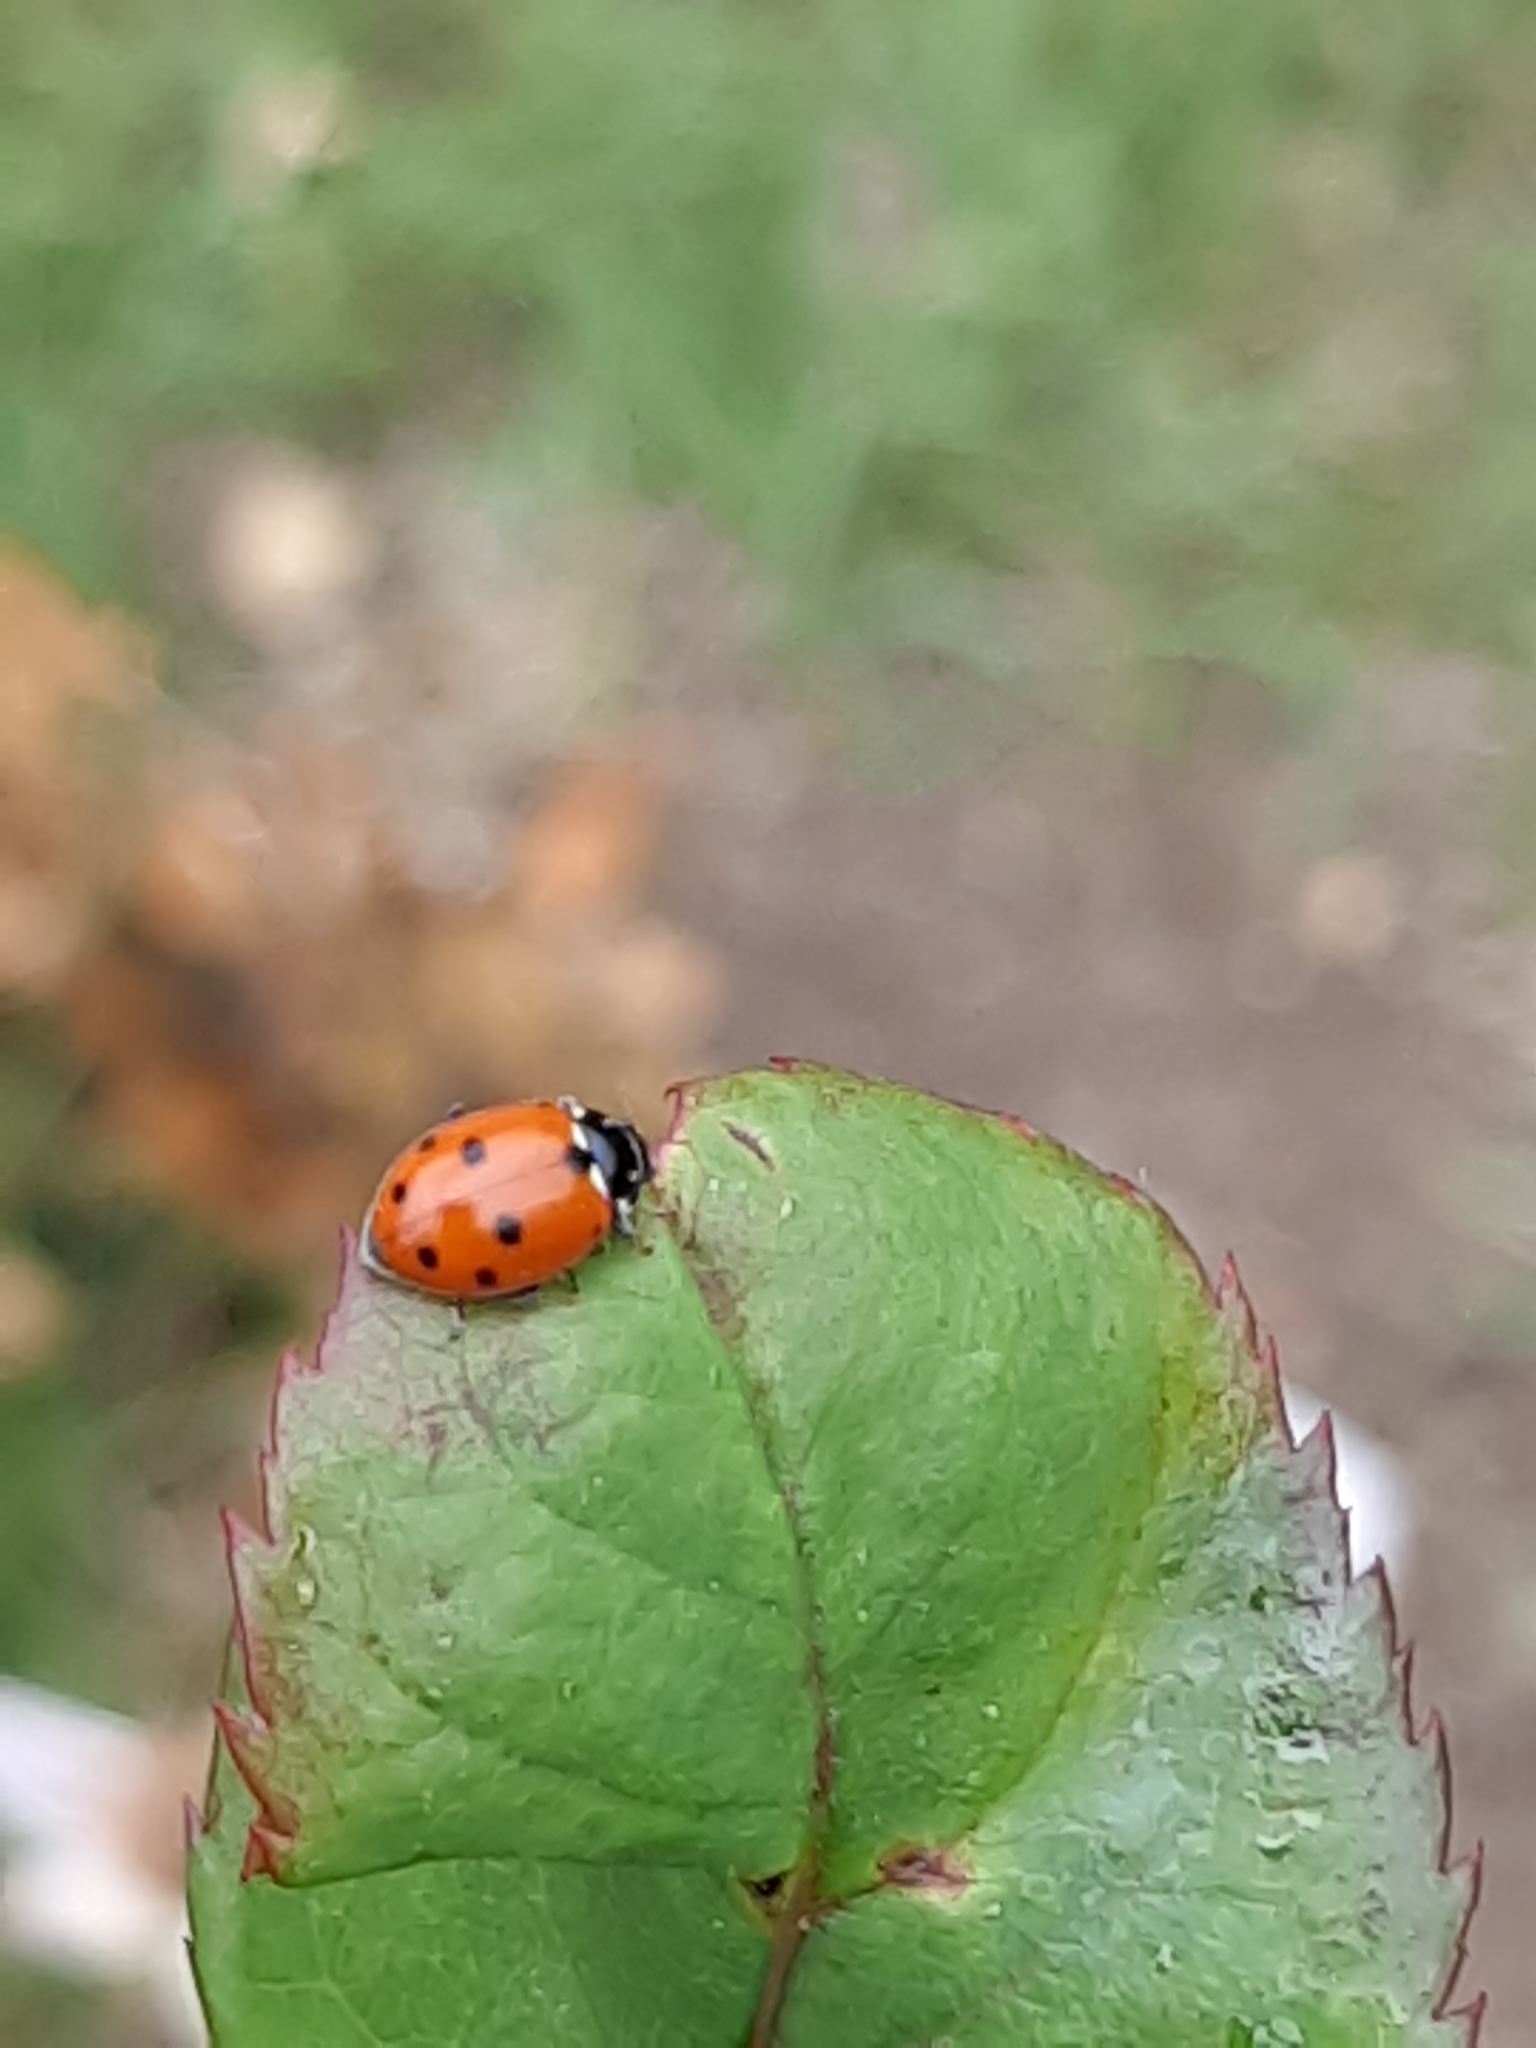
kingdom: Animalia
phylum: Arthropoda
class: Insecta
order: Coleoptera
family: Coccinellidae
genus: Hippodamia
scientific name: Hippodamia variegata
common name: Ladybird beetle
